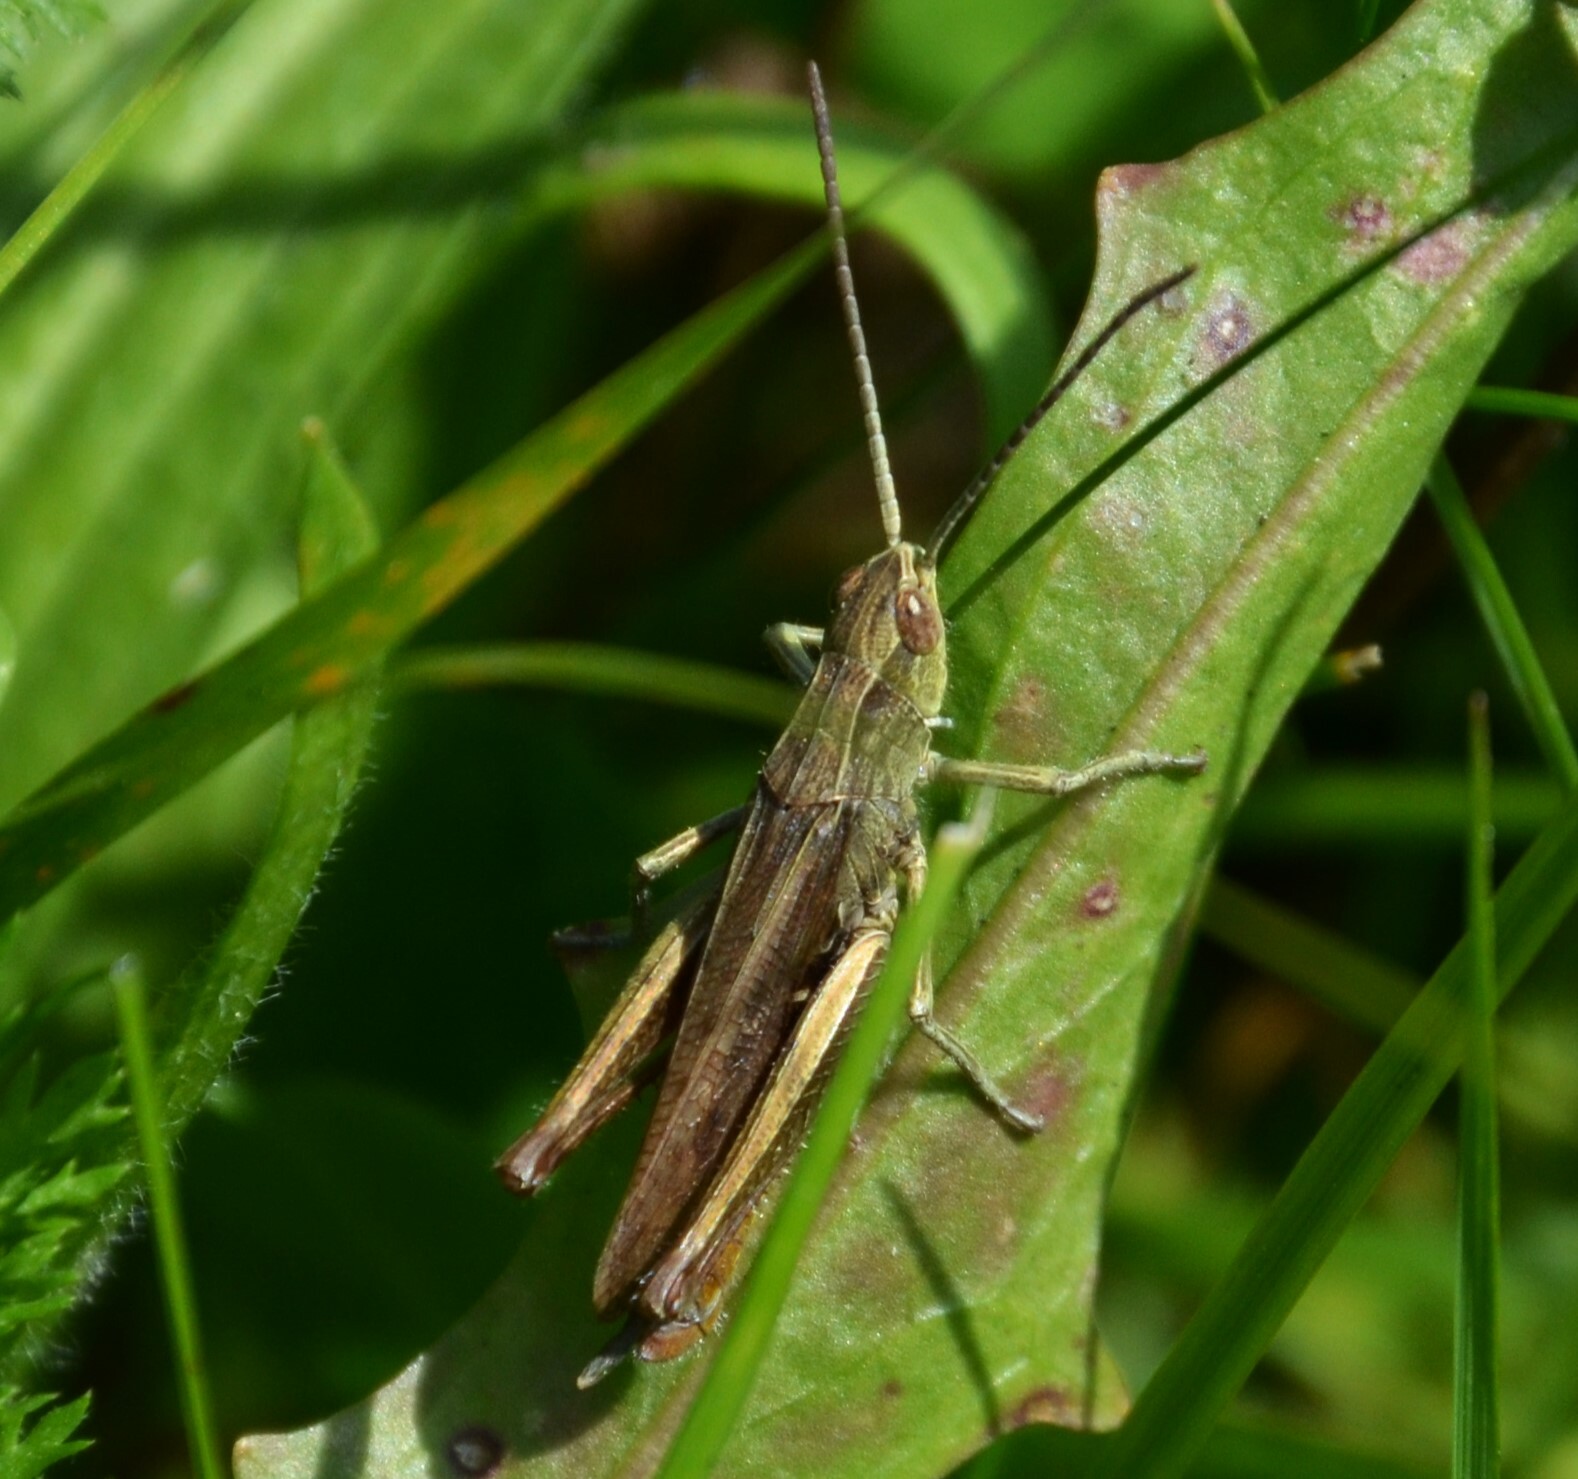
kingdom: Animalia
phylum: Arthropoda
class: Insecta
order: Orthoptera
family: Acrididae
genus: Chorthippus
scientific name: Chorthippus dorsatus
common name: Steppe grasshopper
